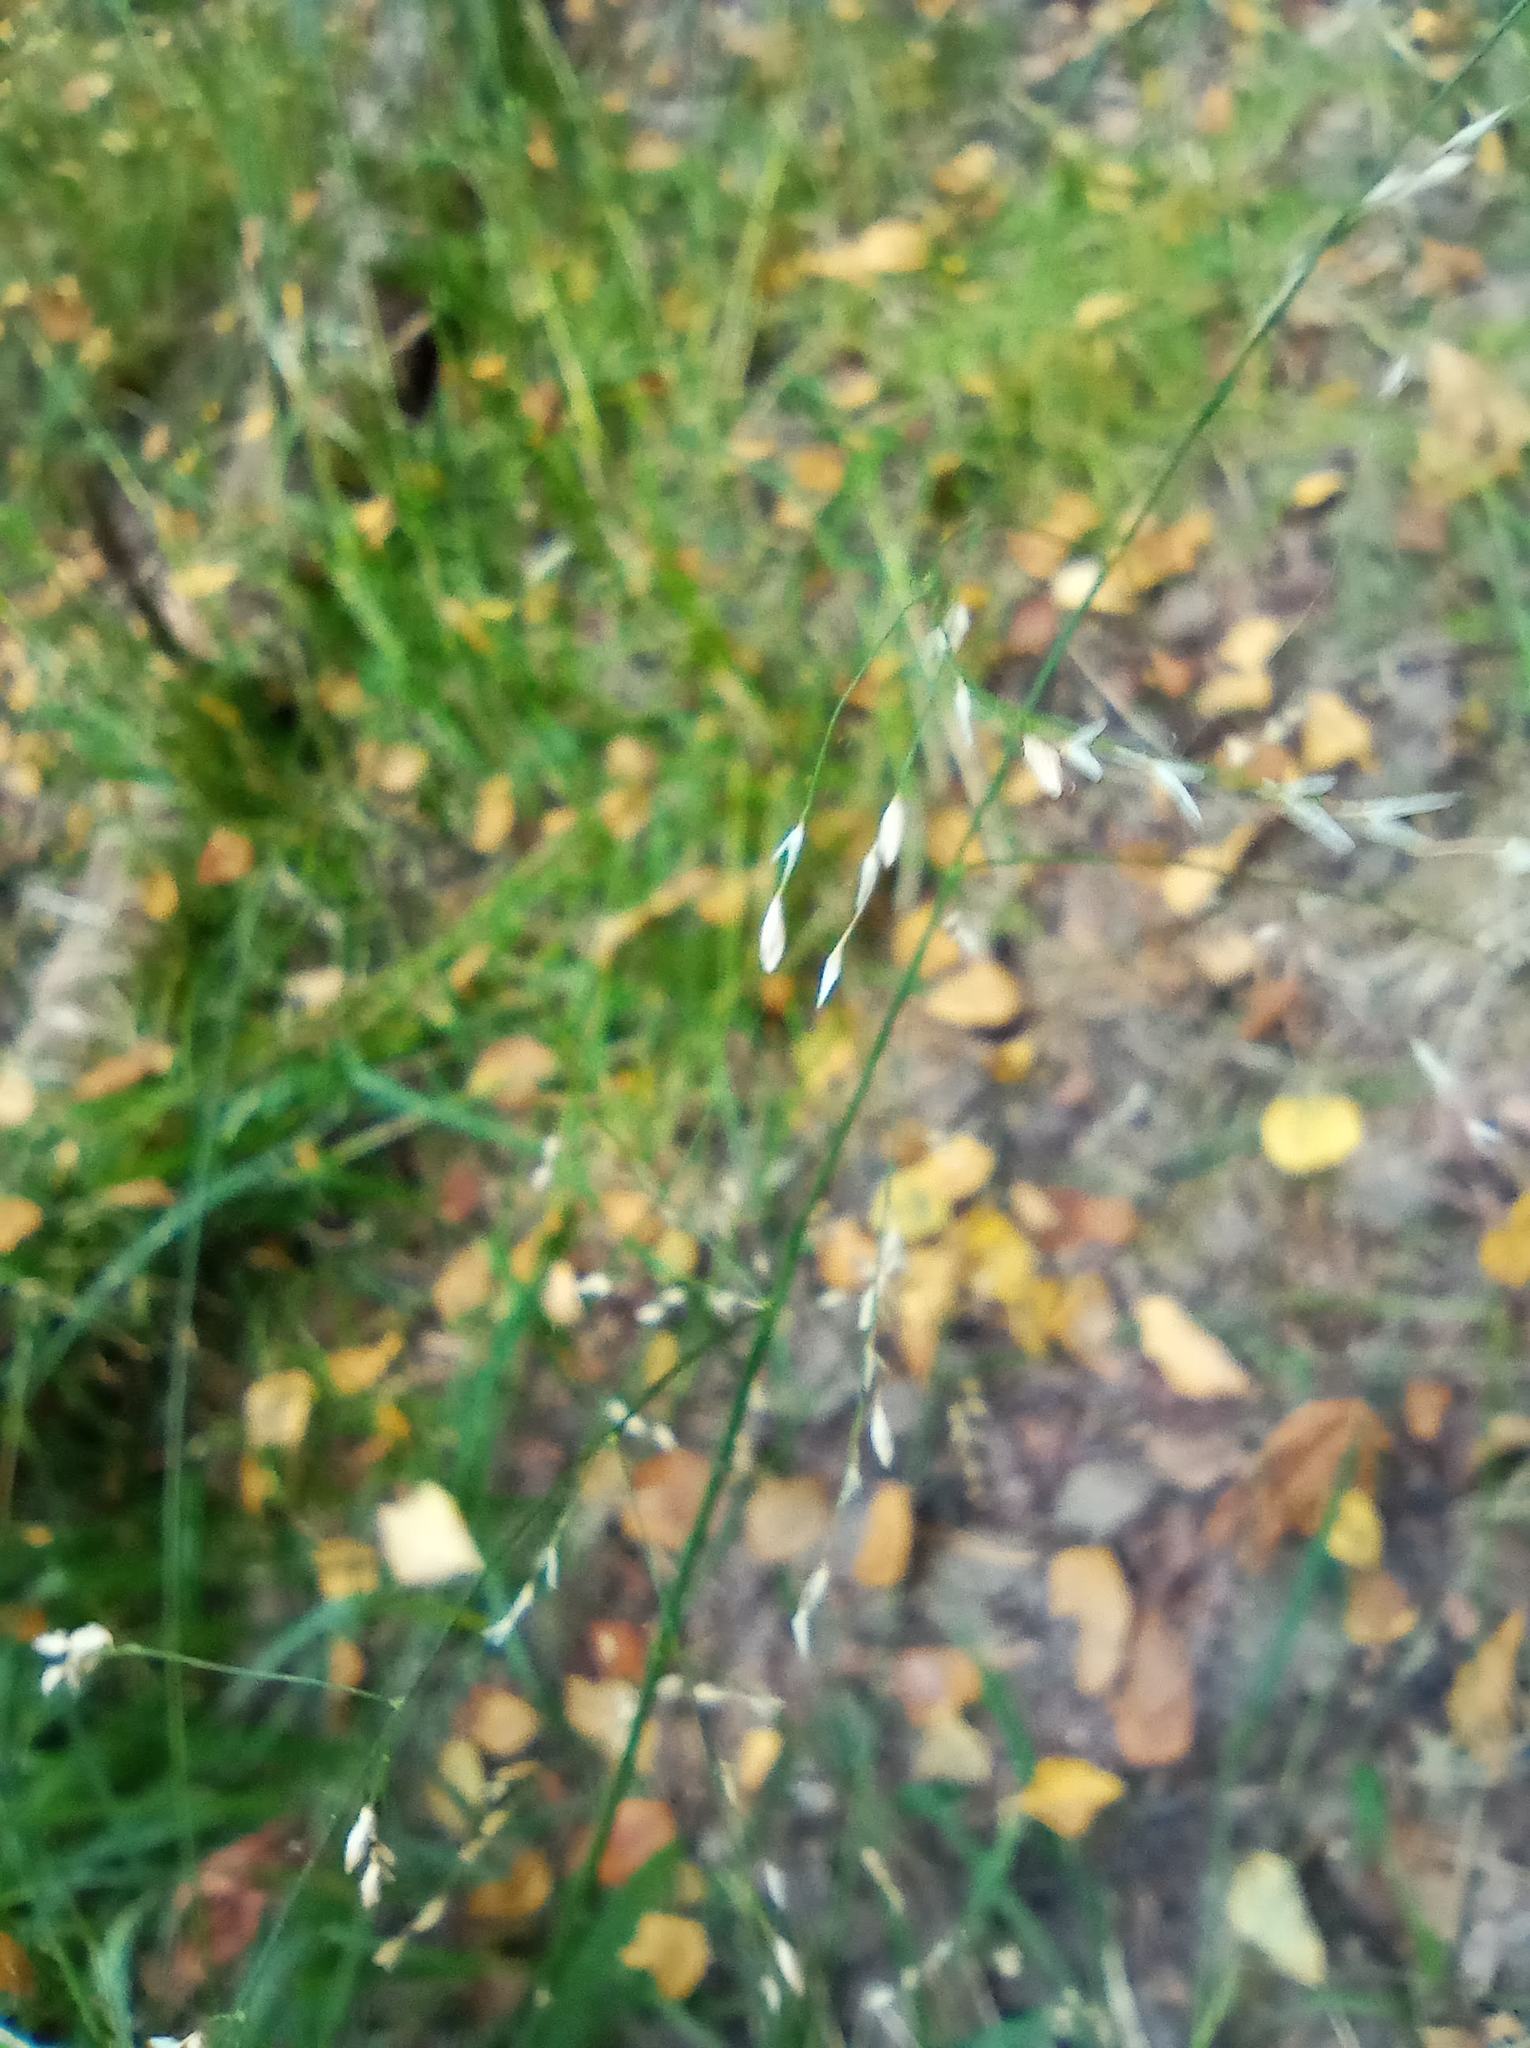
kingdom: Plantae
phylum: Tracheophyta
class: Liliopsida
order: Poales
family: Poaceae
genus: Milium
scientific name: Milium effusum
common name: Wood millet
